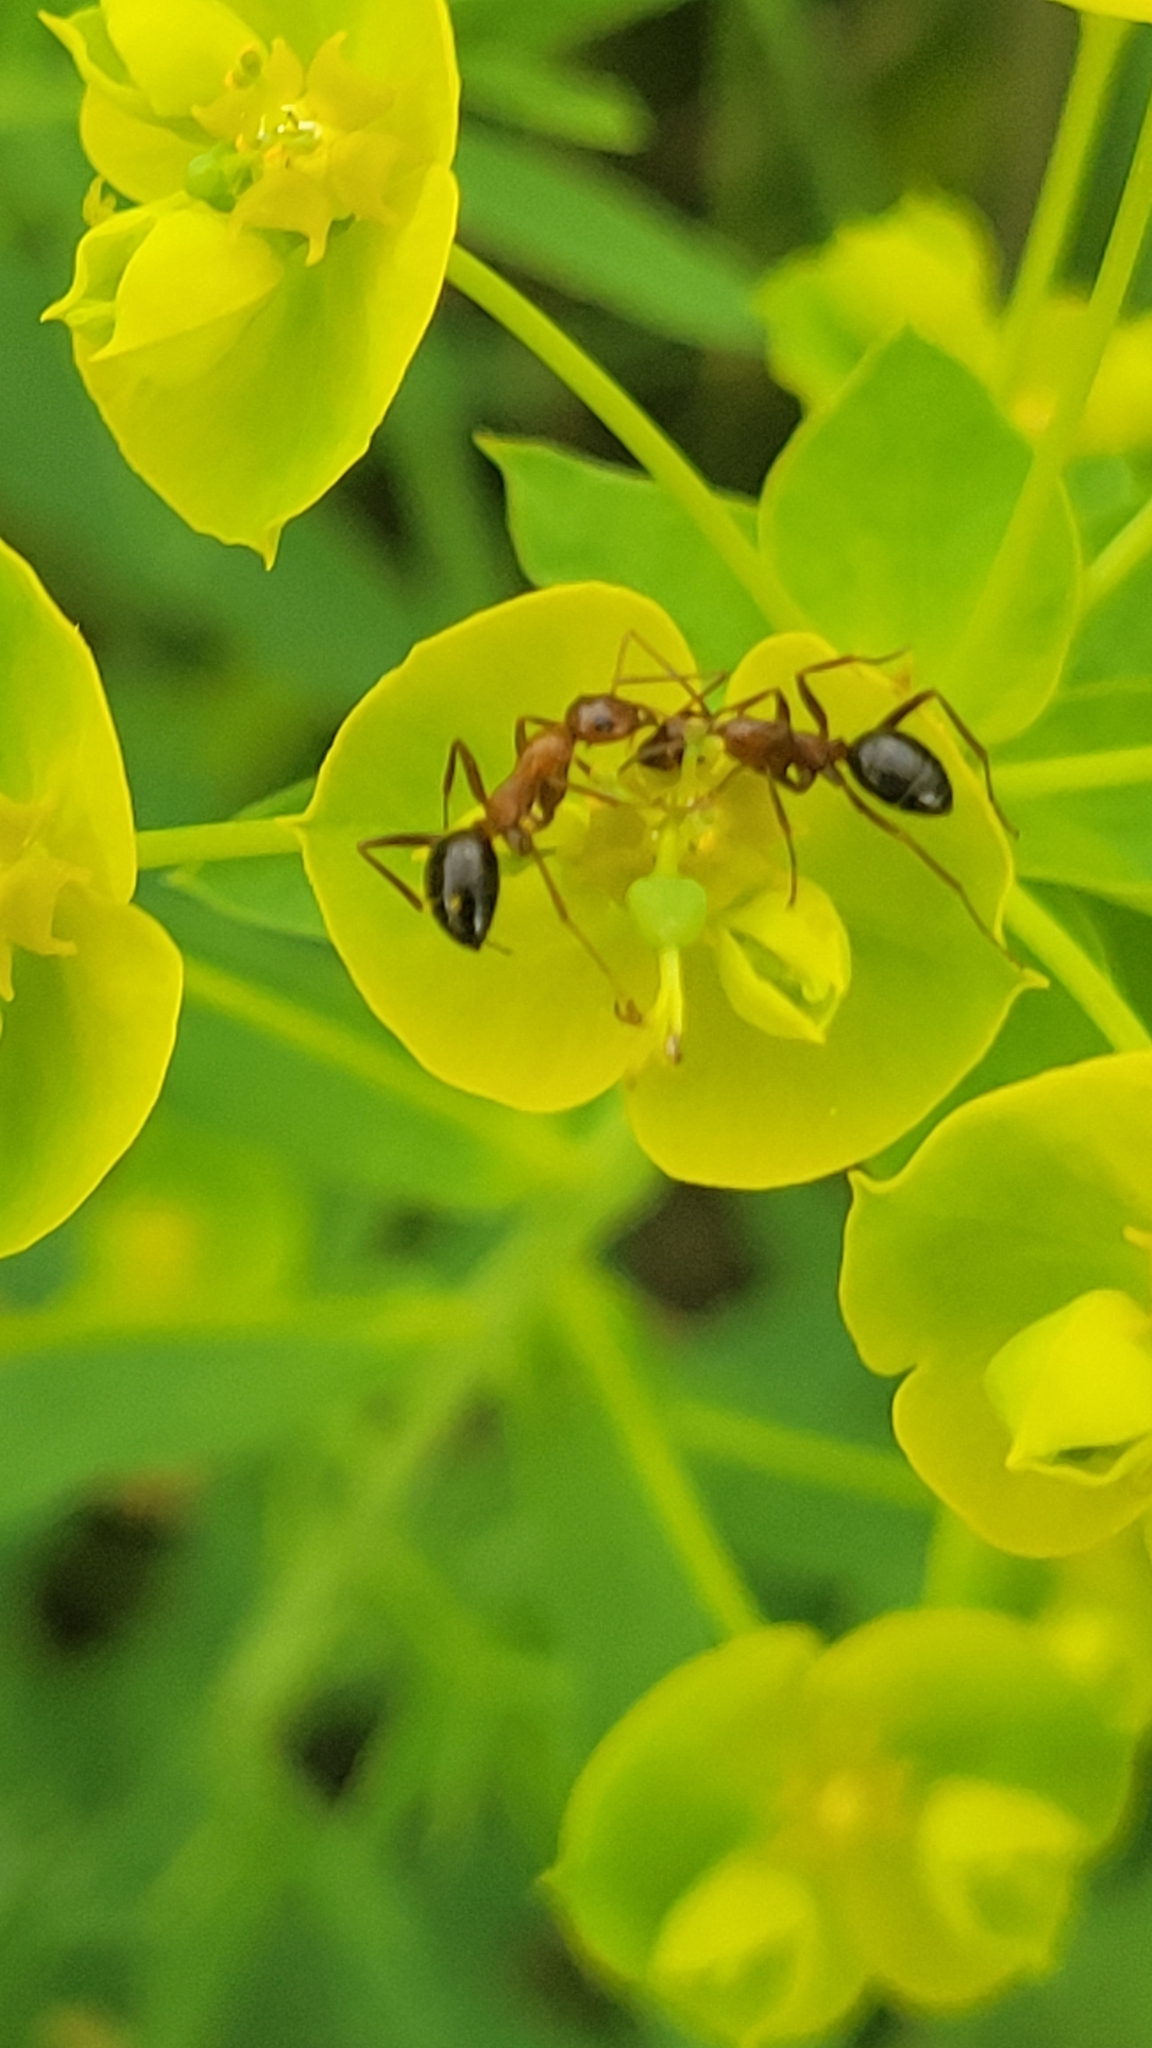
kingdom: Animalia
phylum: Arthropoda
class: Insecta
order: Hymenoptera
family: Formicidae
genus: Formica
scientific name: Formica
